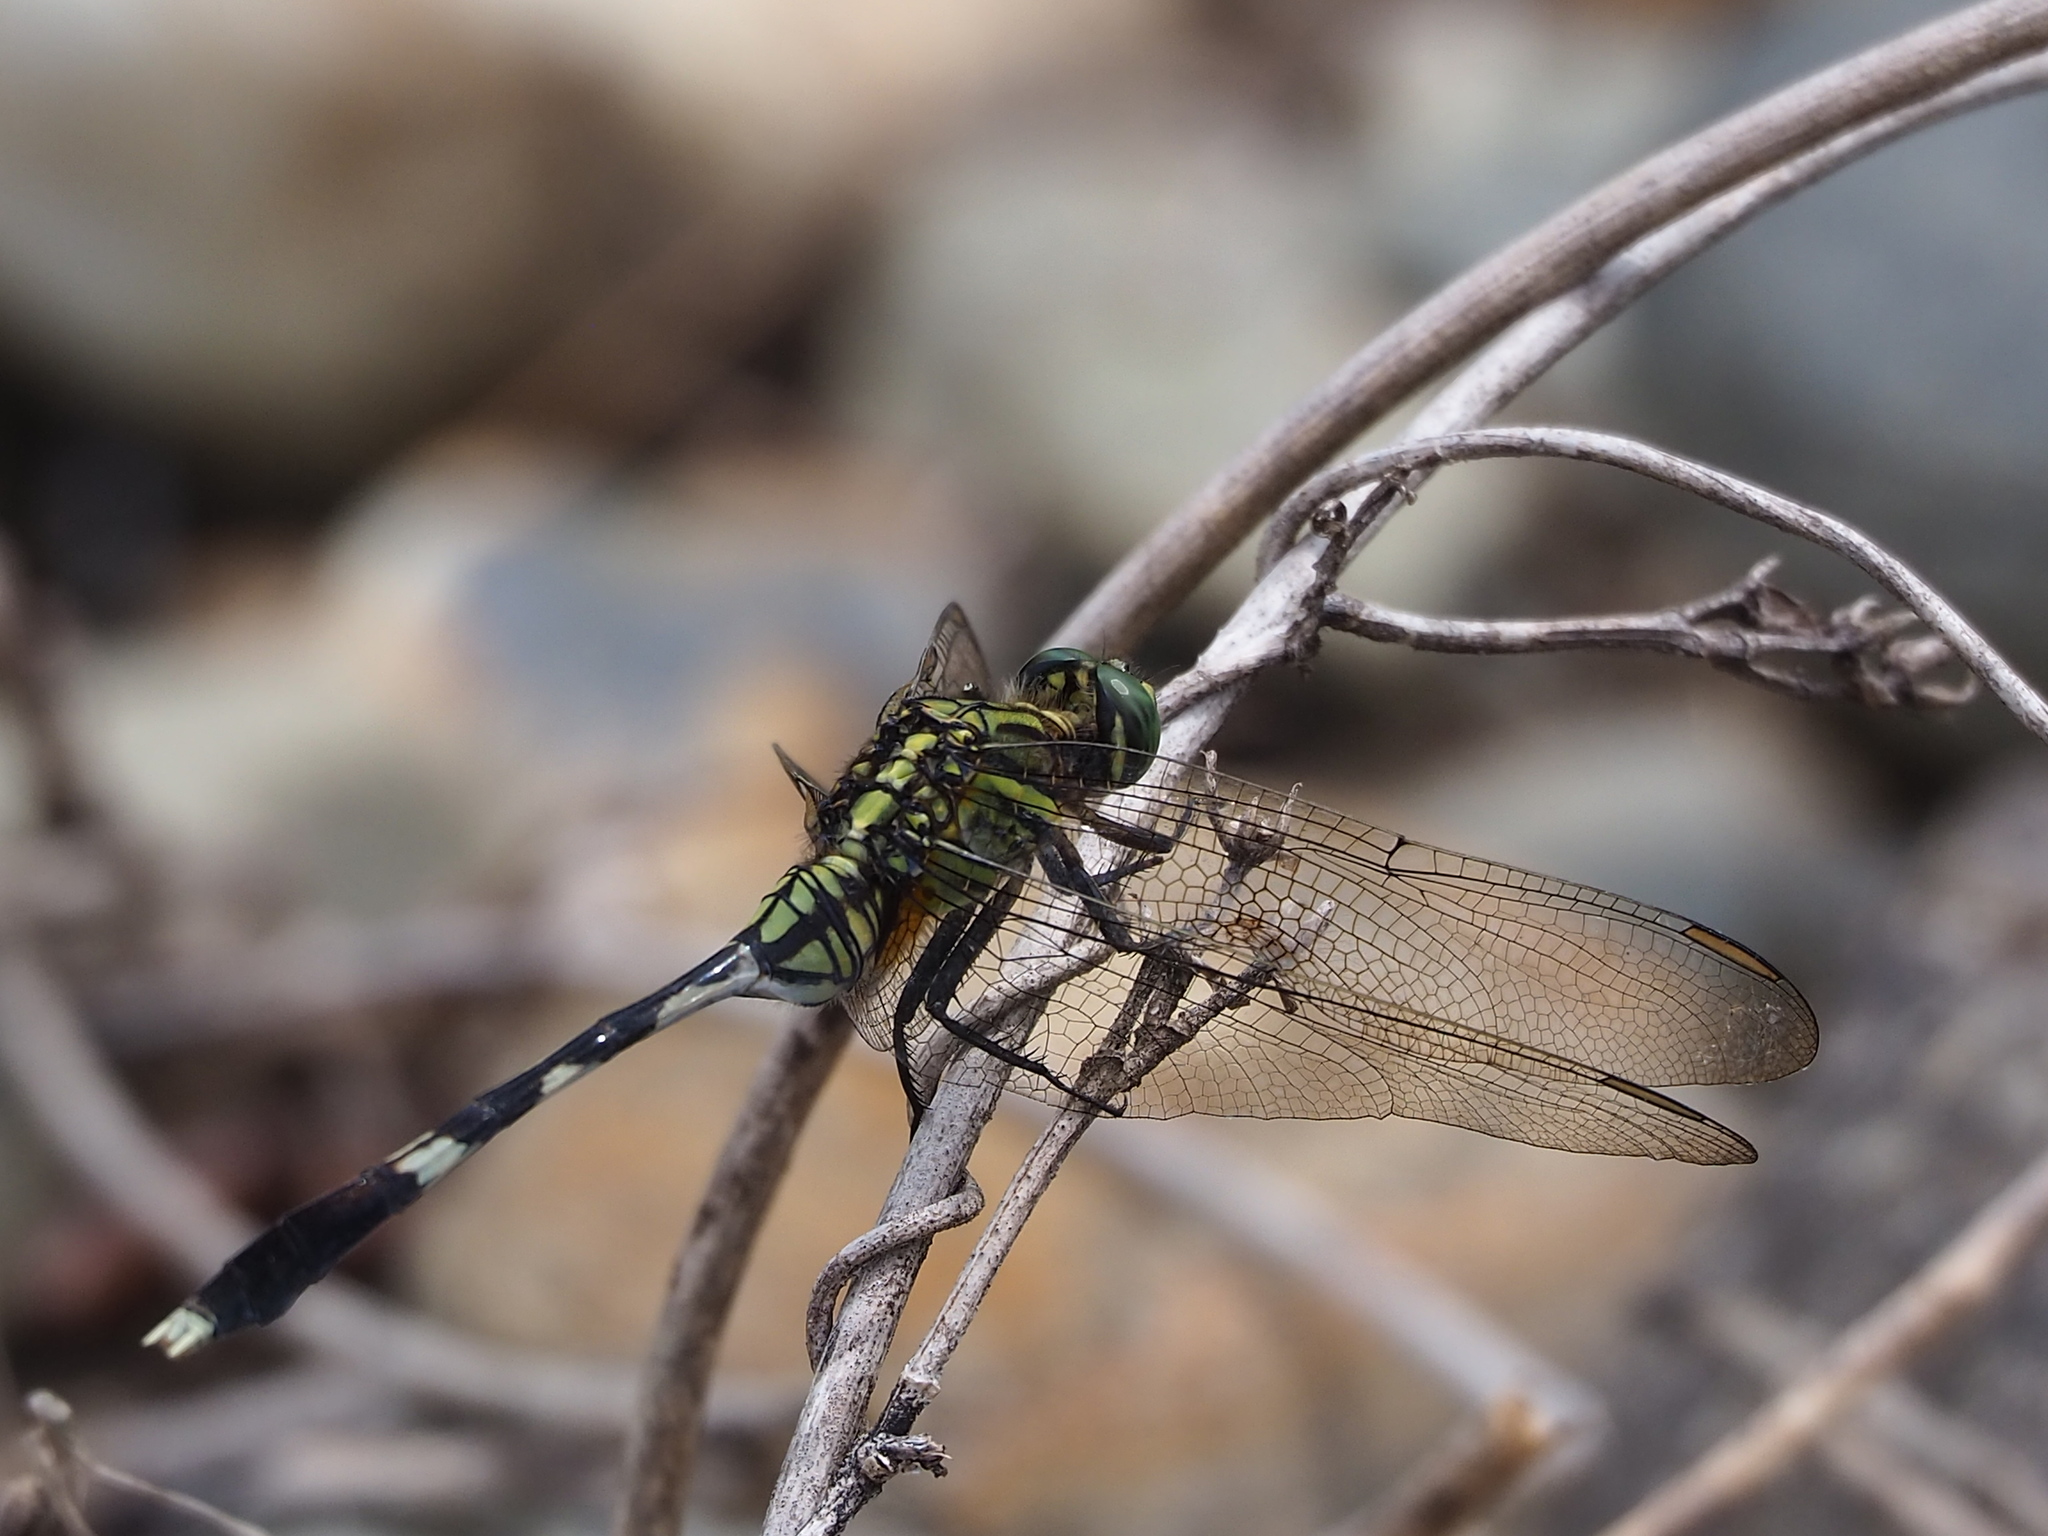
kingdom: Animalia
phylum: Arthropoda
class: Insecta
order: Odonata
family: Libellulidae
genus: Orthetrum
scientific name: Orthetrum sabina
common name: Slender skimmer
